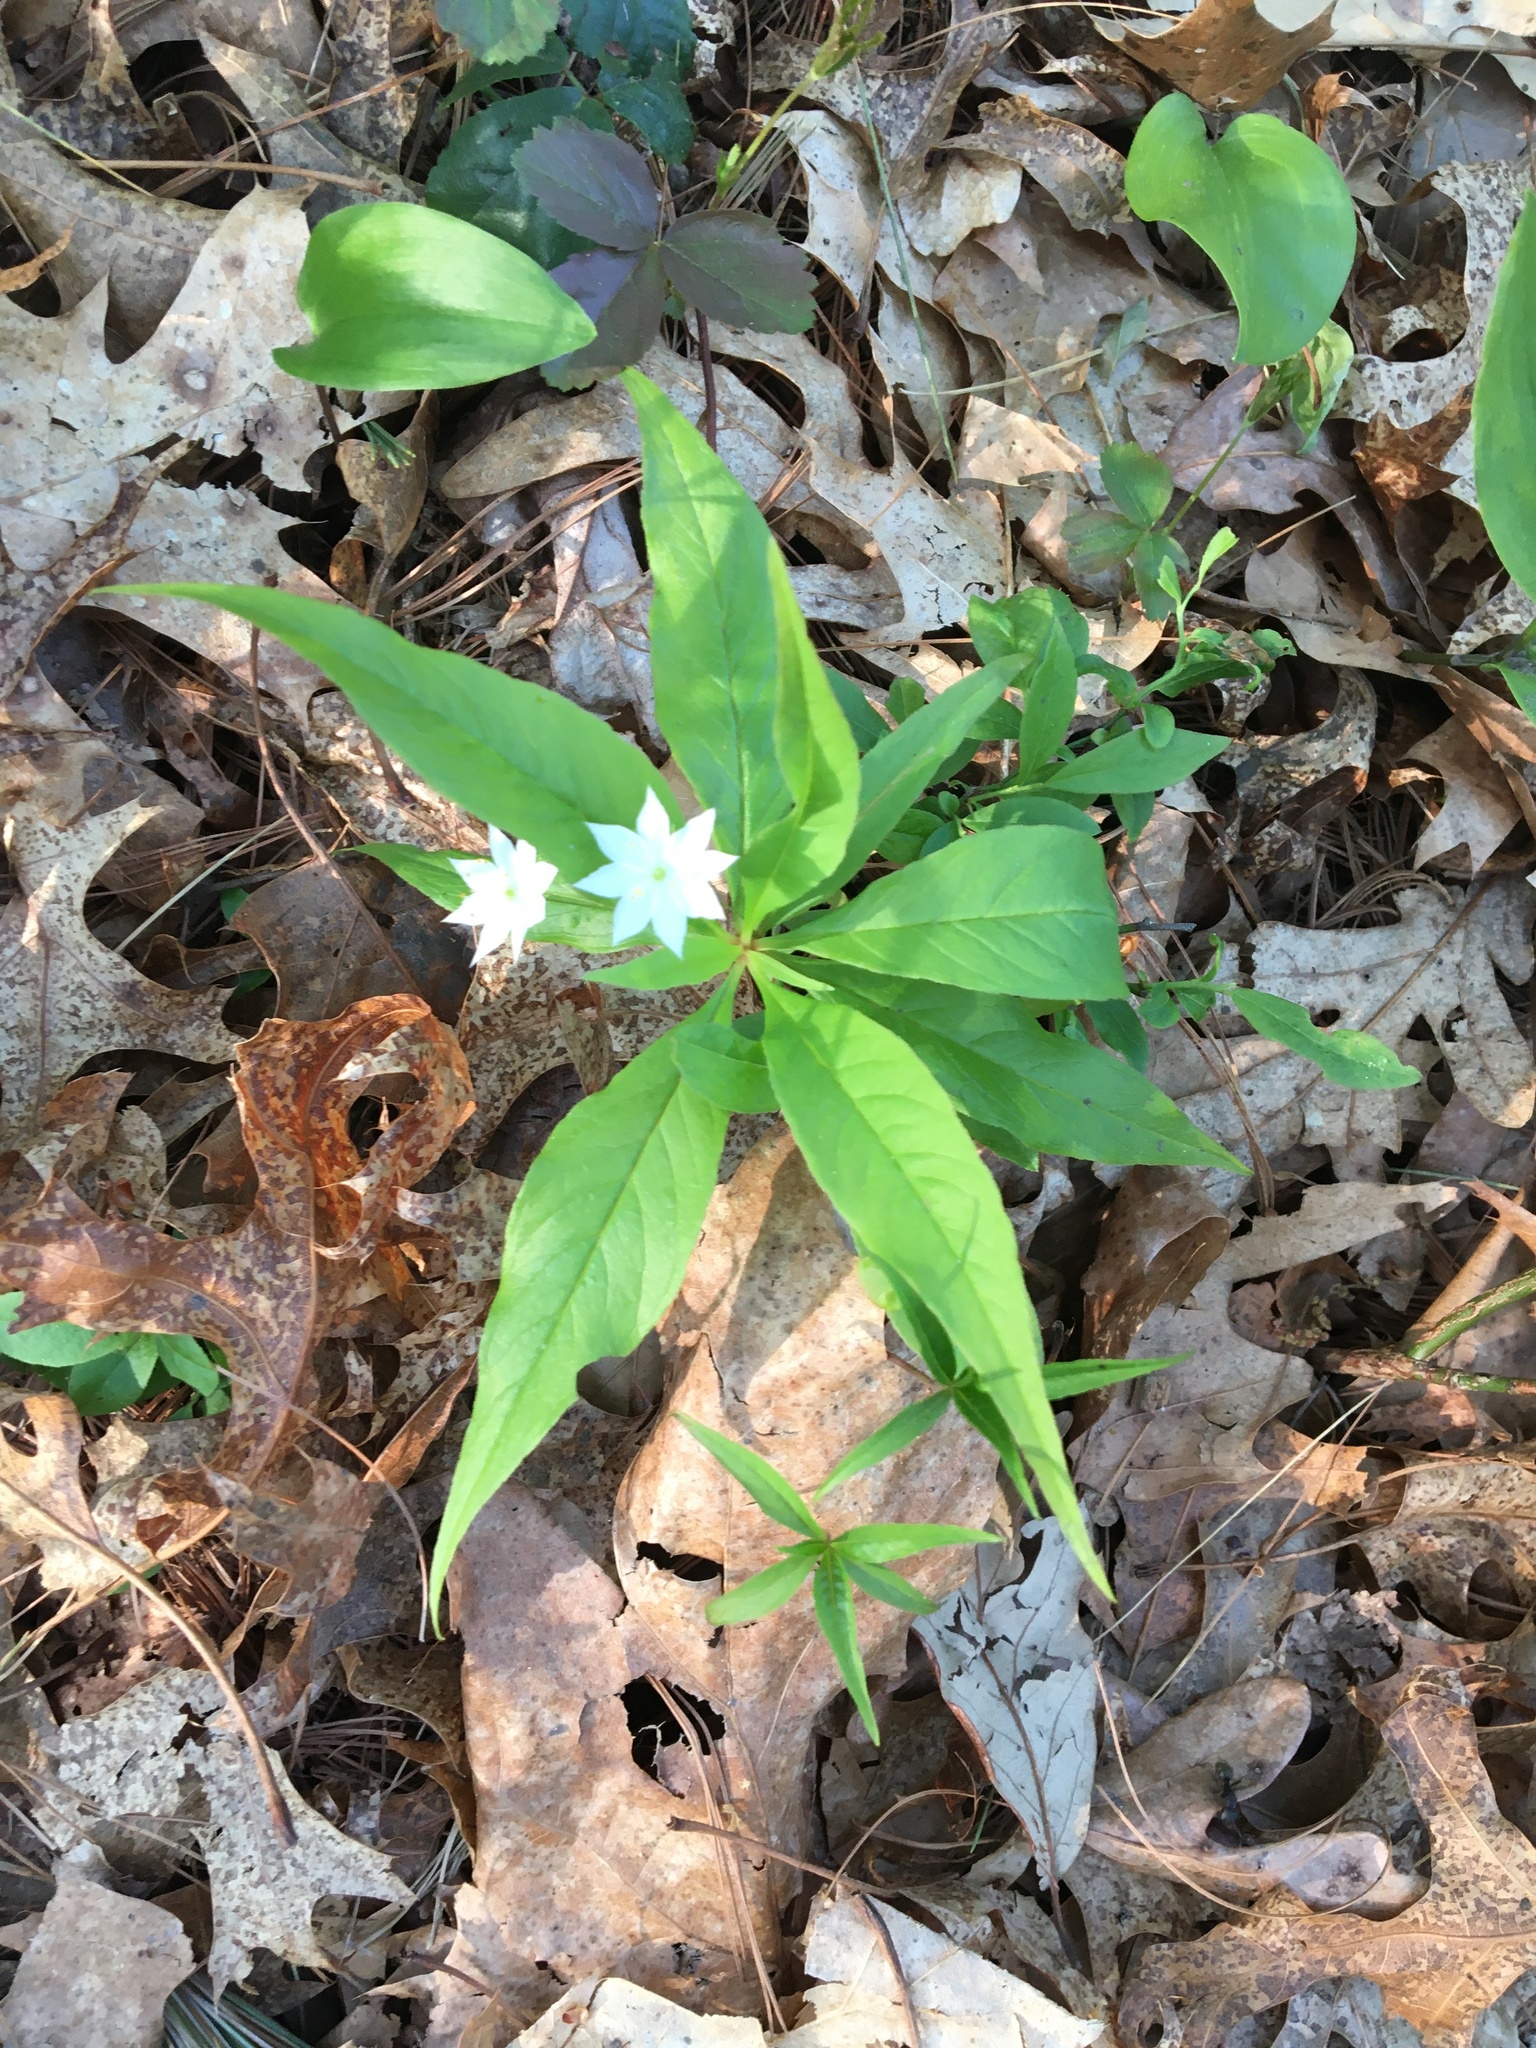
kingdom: Plantae
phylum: Tracheophyta
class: Magnoliopsida
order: Ericales
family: Primulaceae
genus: Lysimachia
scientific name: Lysimachia borealis
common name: American starflower
